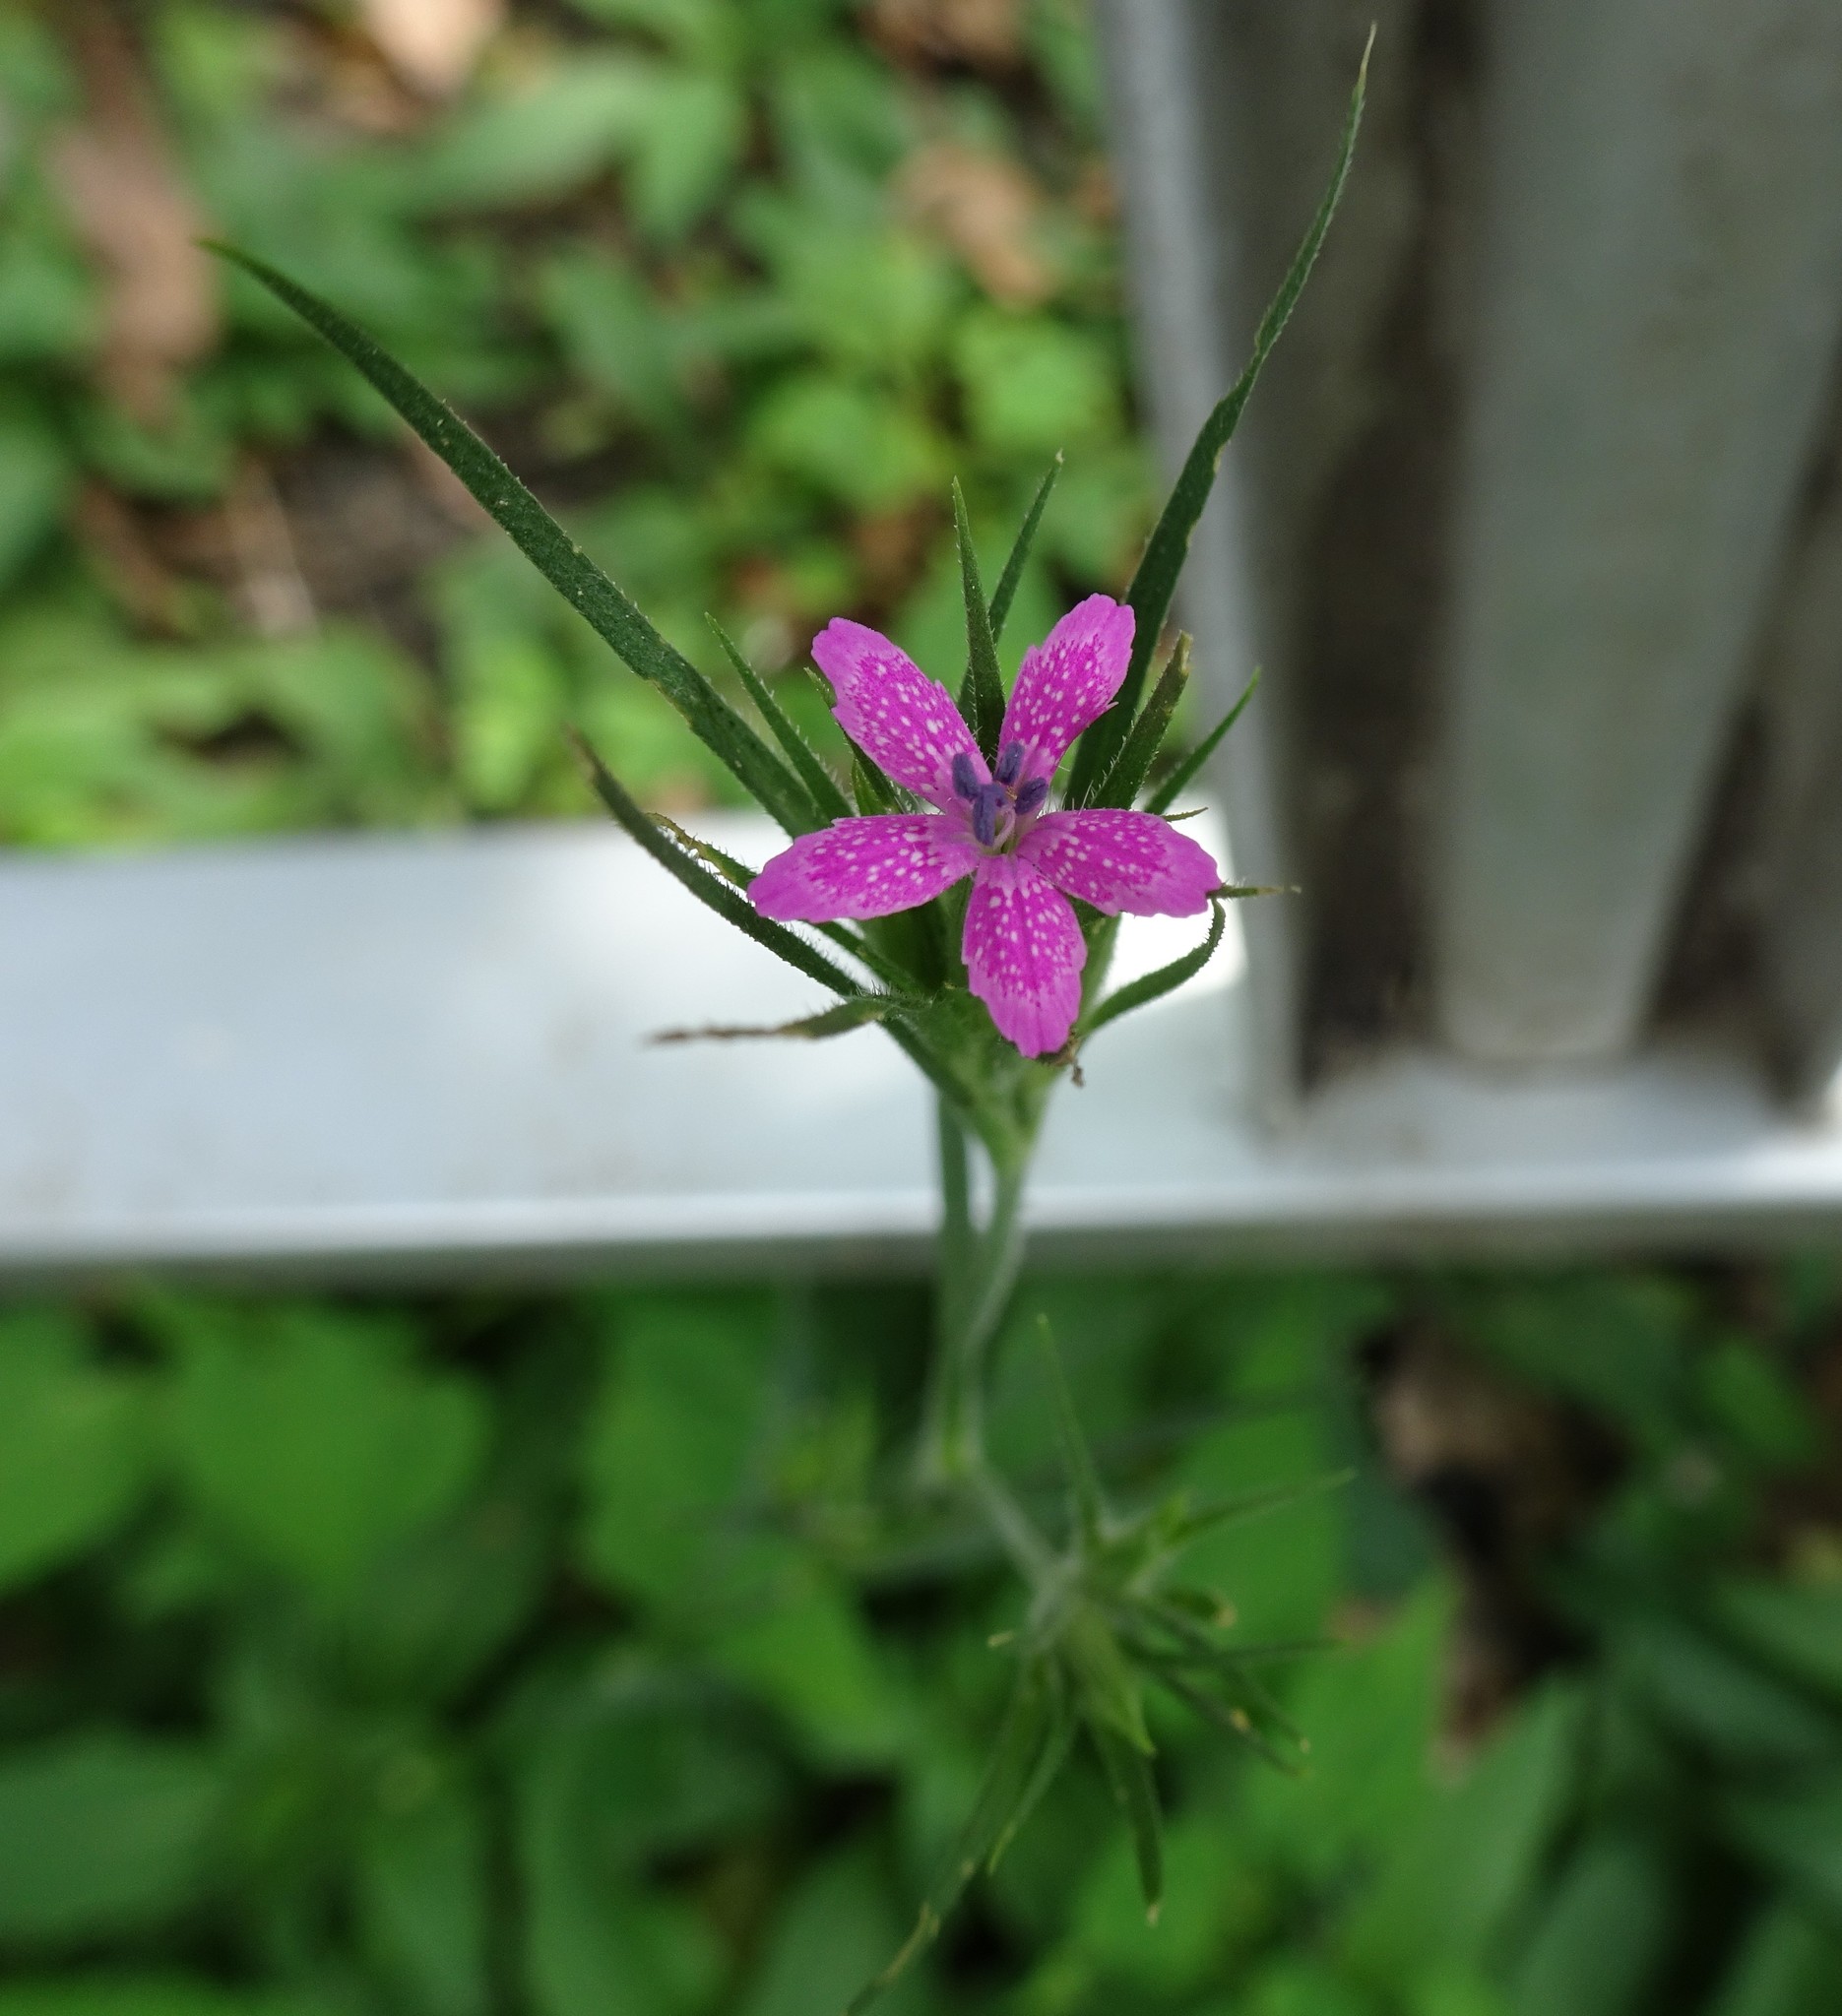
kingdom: Plantae
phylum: Tracheophyta
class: Magnoliopsida
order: Caryophyllales
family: Caryophyllaceae
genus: Dianthus
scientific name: Dianthus armeria
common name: Deptford pink
